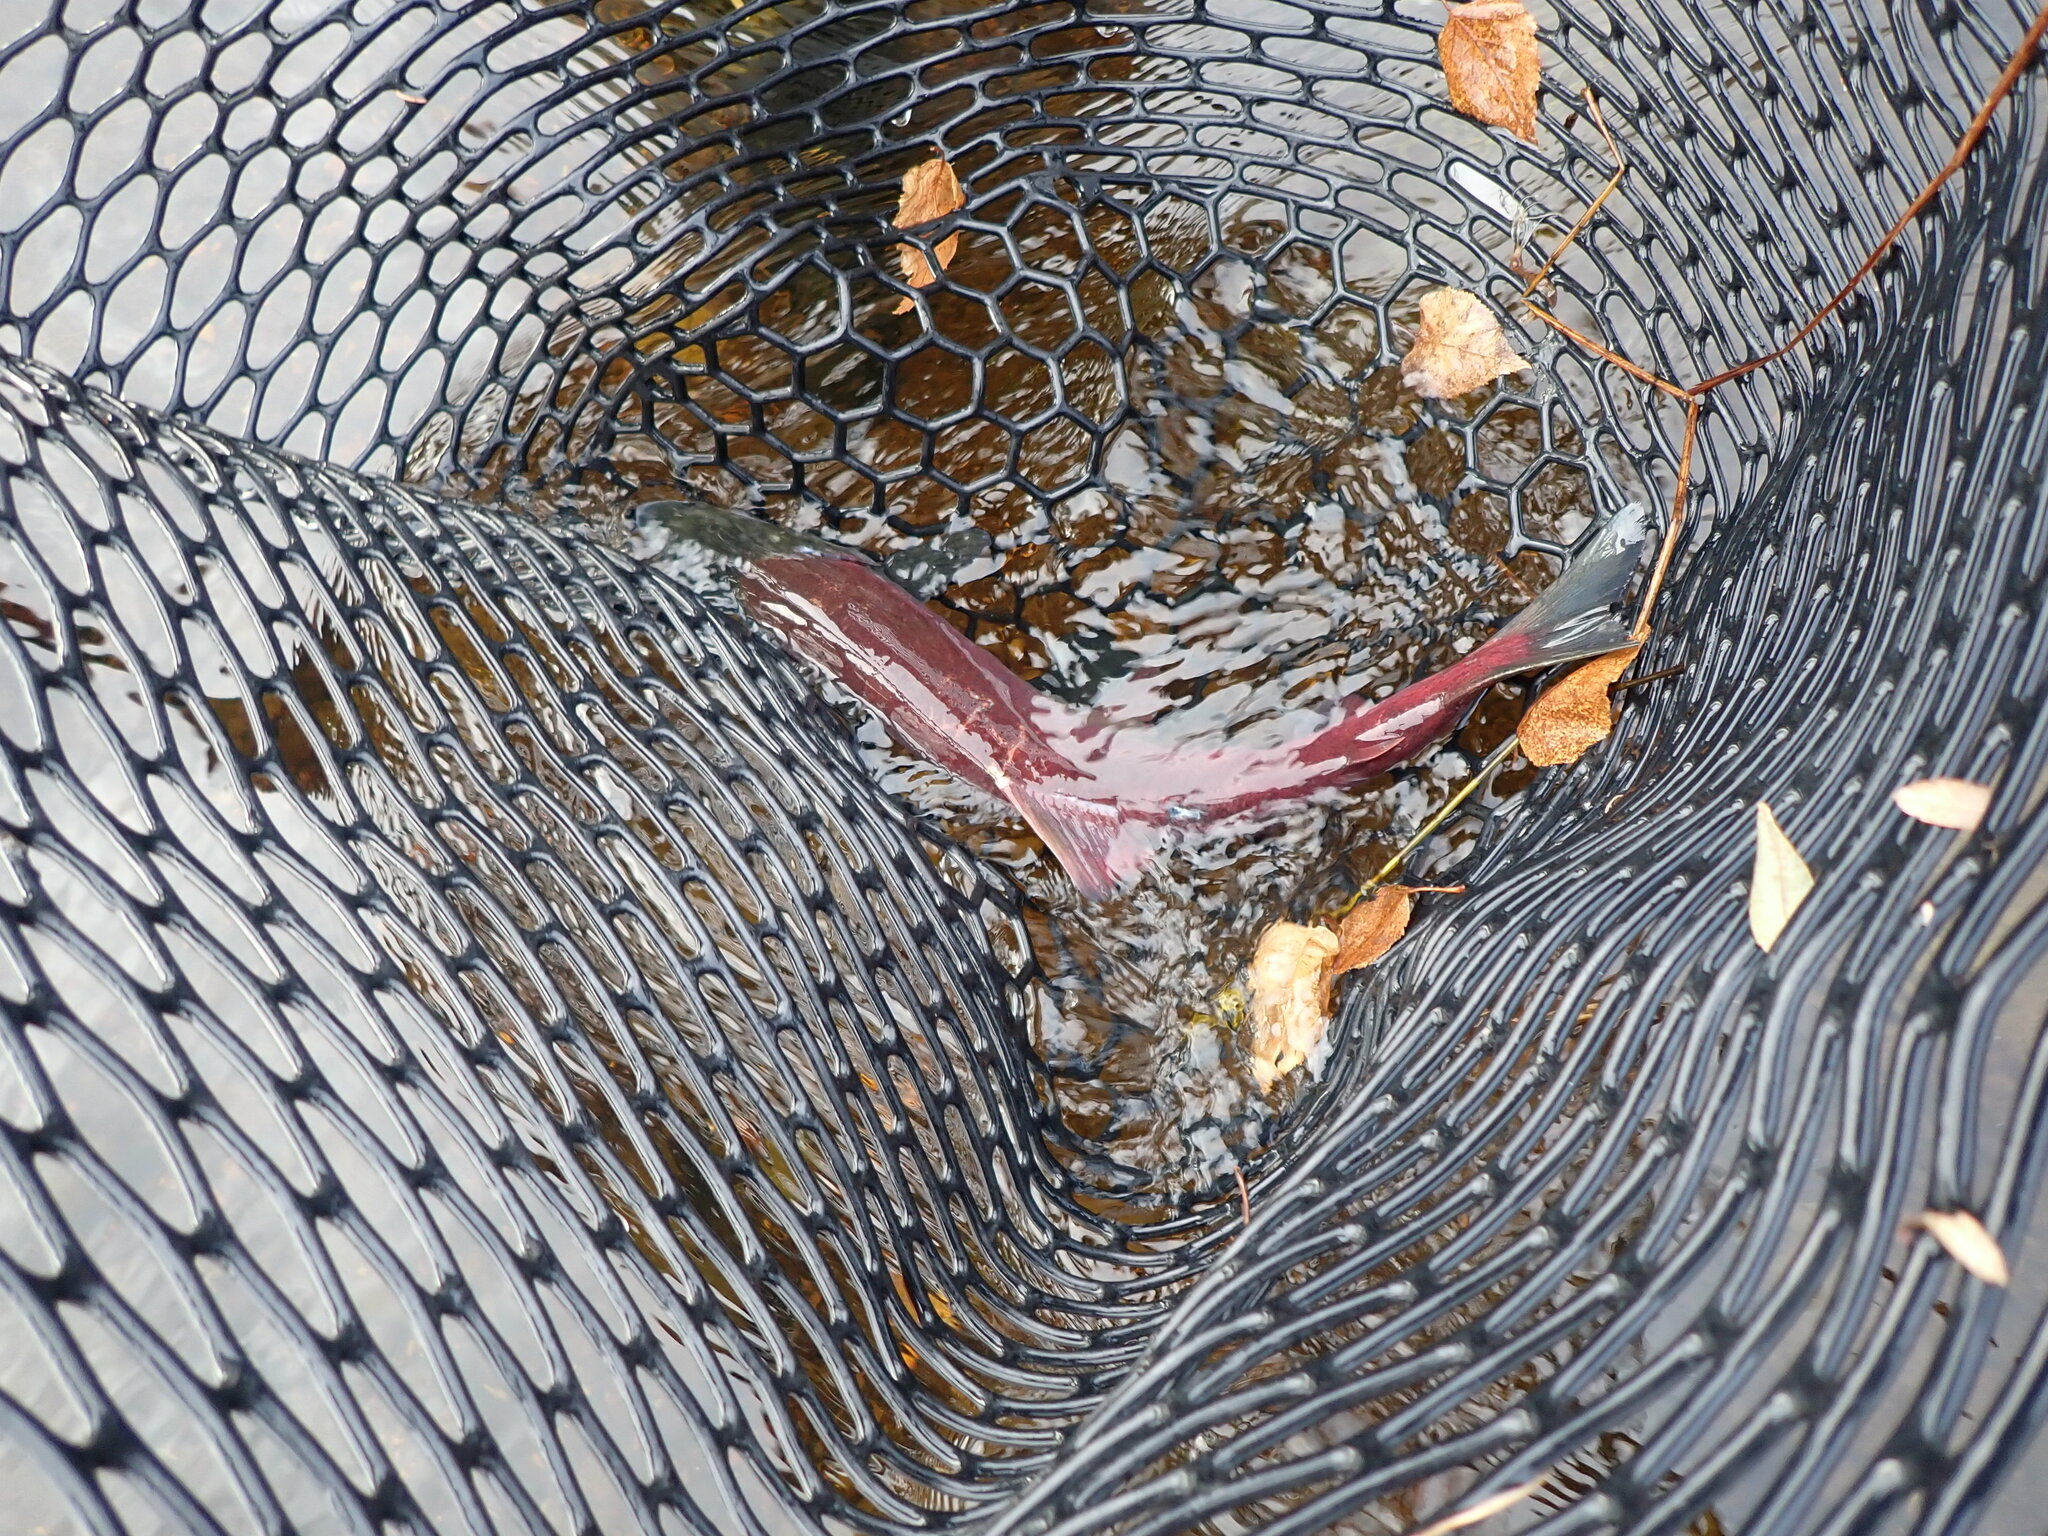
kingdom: Animalia
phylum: Chordata
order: Salmoniformes
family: Salmonidae
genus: Oncorhynchus
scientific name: Oncorhynchus nerka
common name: Sockeye salmon
